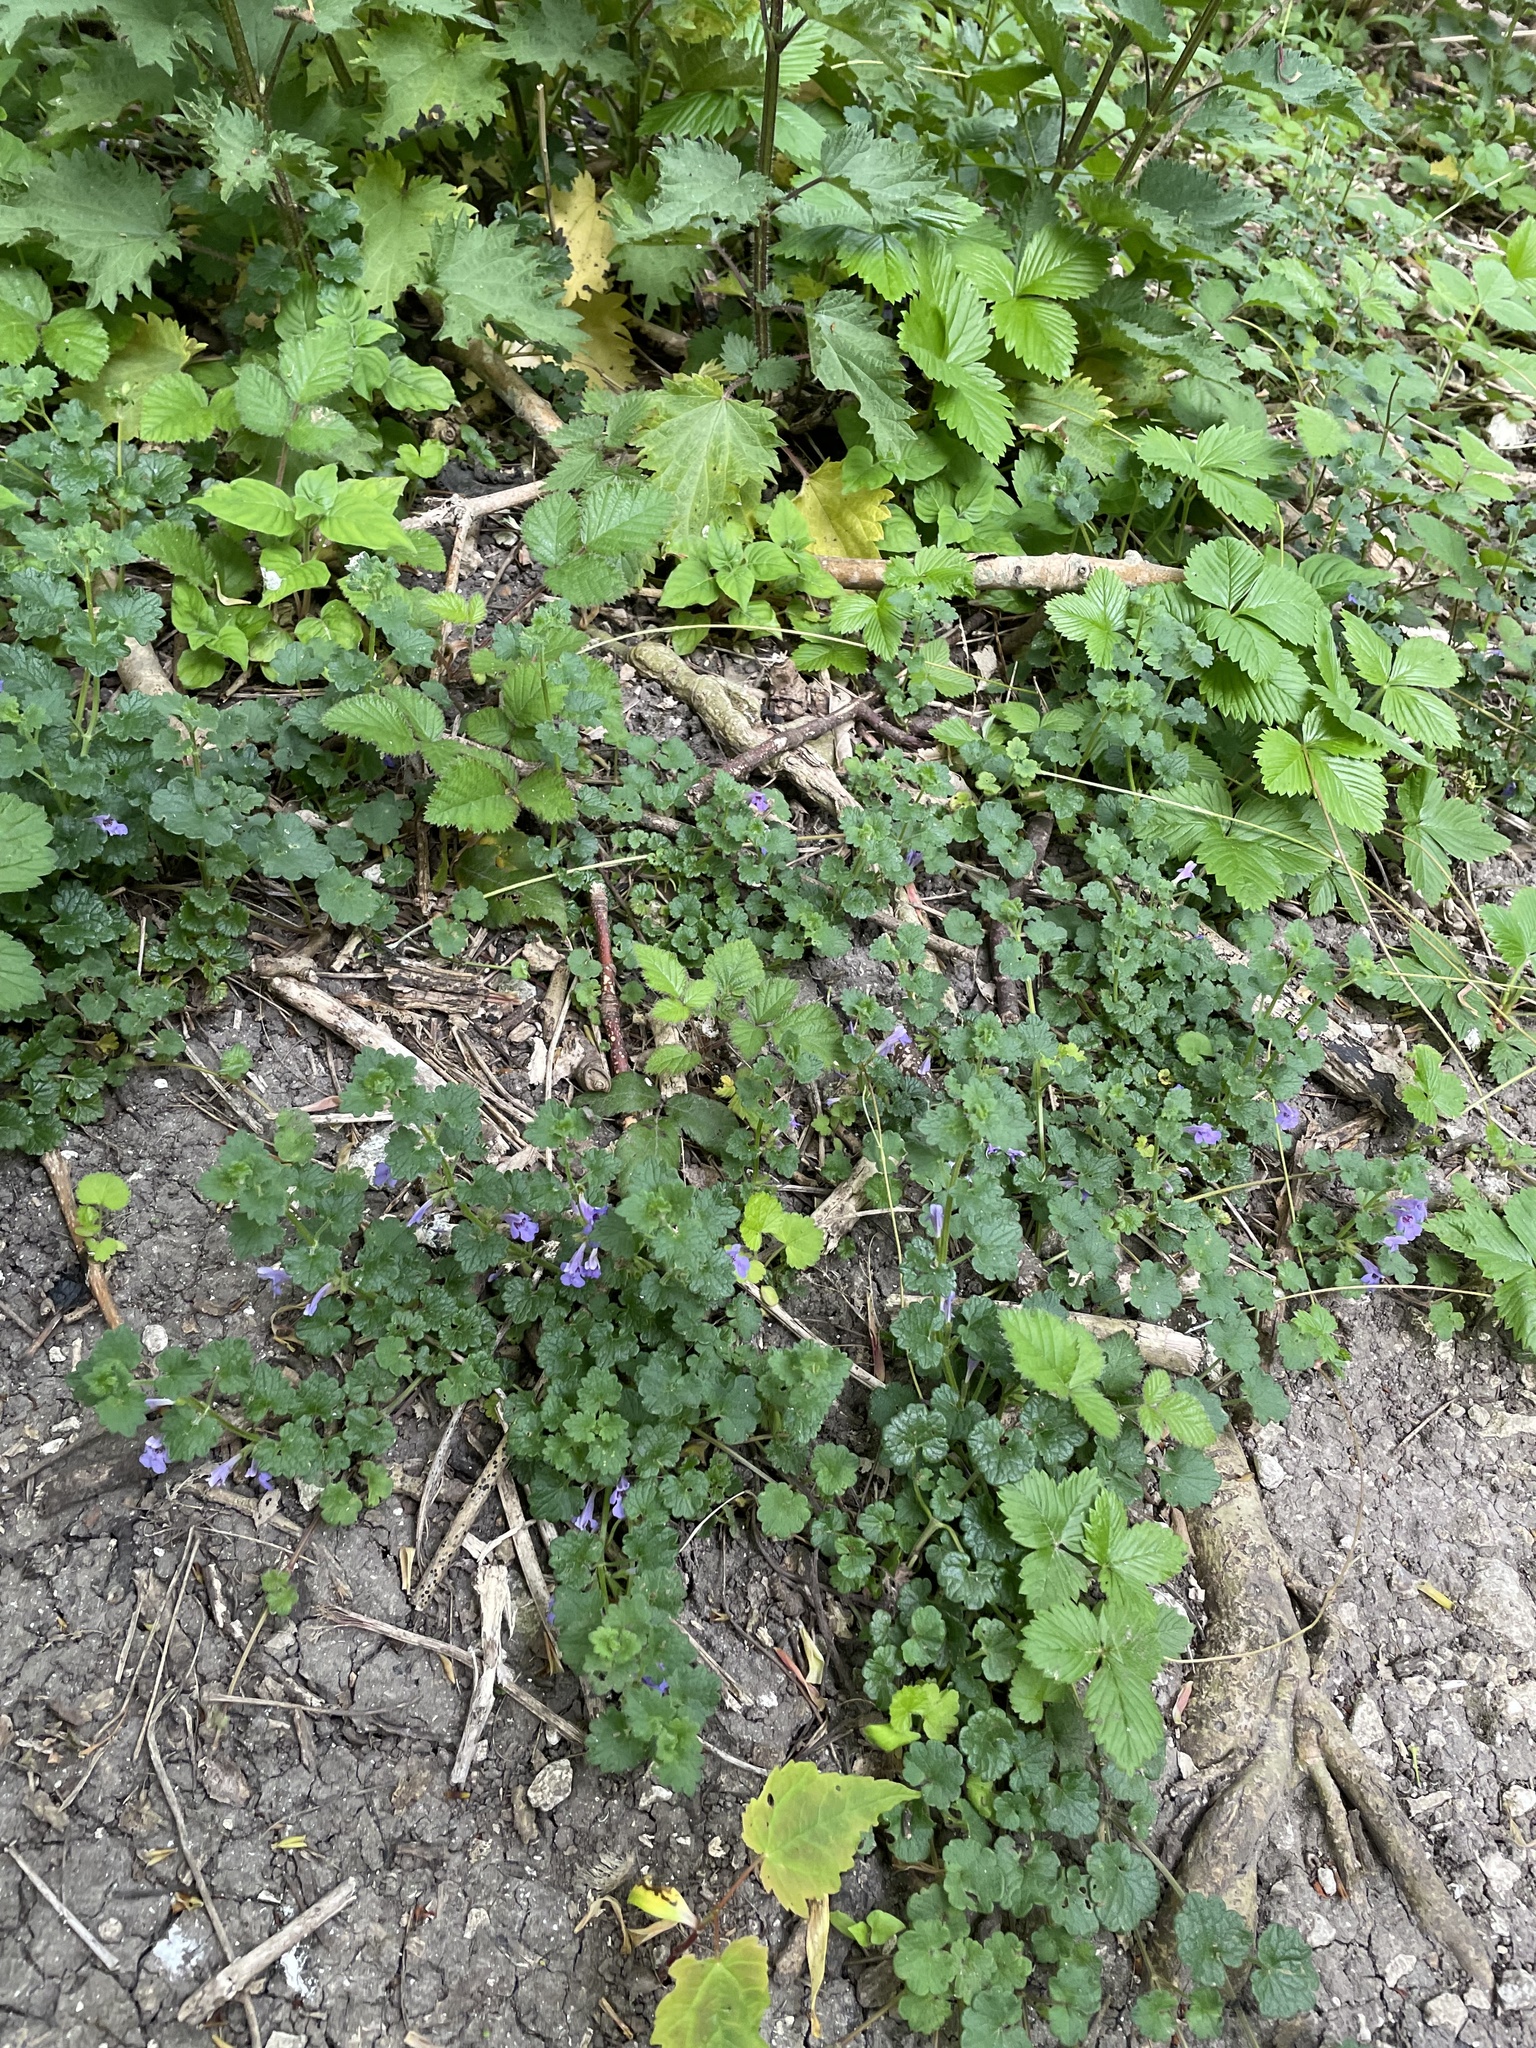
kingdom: Plantae
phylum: Tracheophyta
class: Magnoliopsida
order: Lamiales
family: Lamiaceae
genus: Glechoma
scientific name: Glechoma hederacea
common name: Ground ivy
